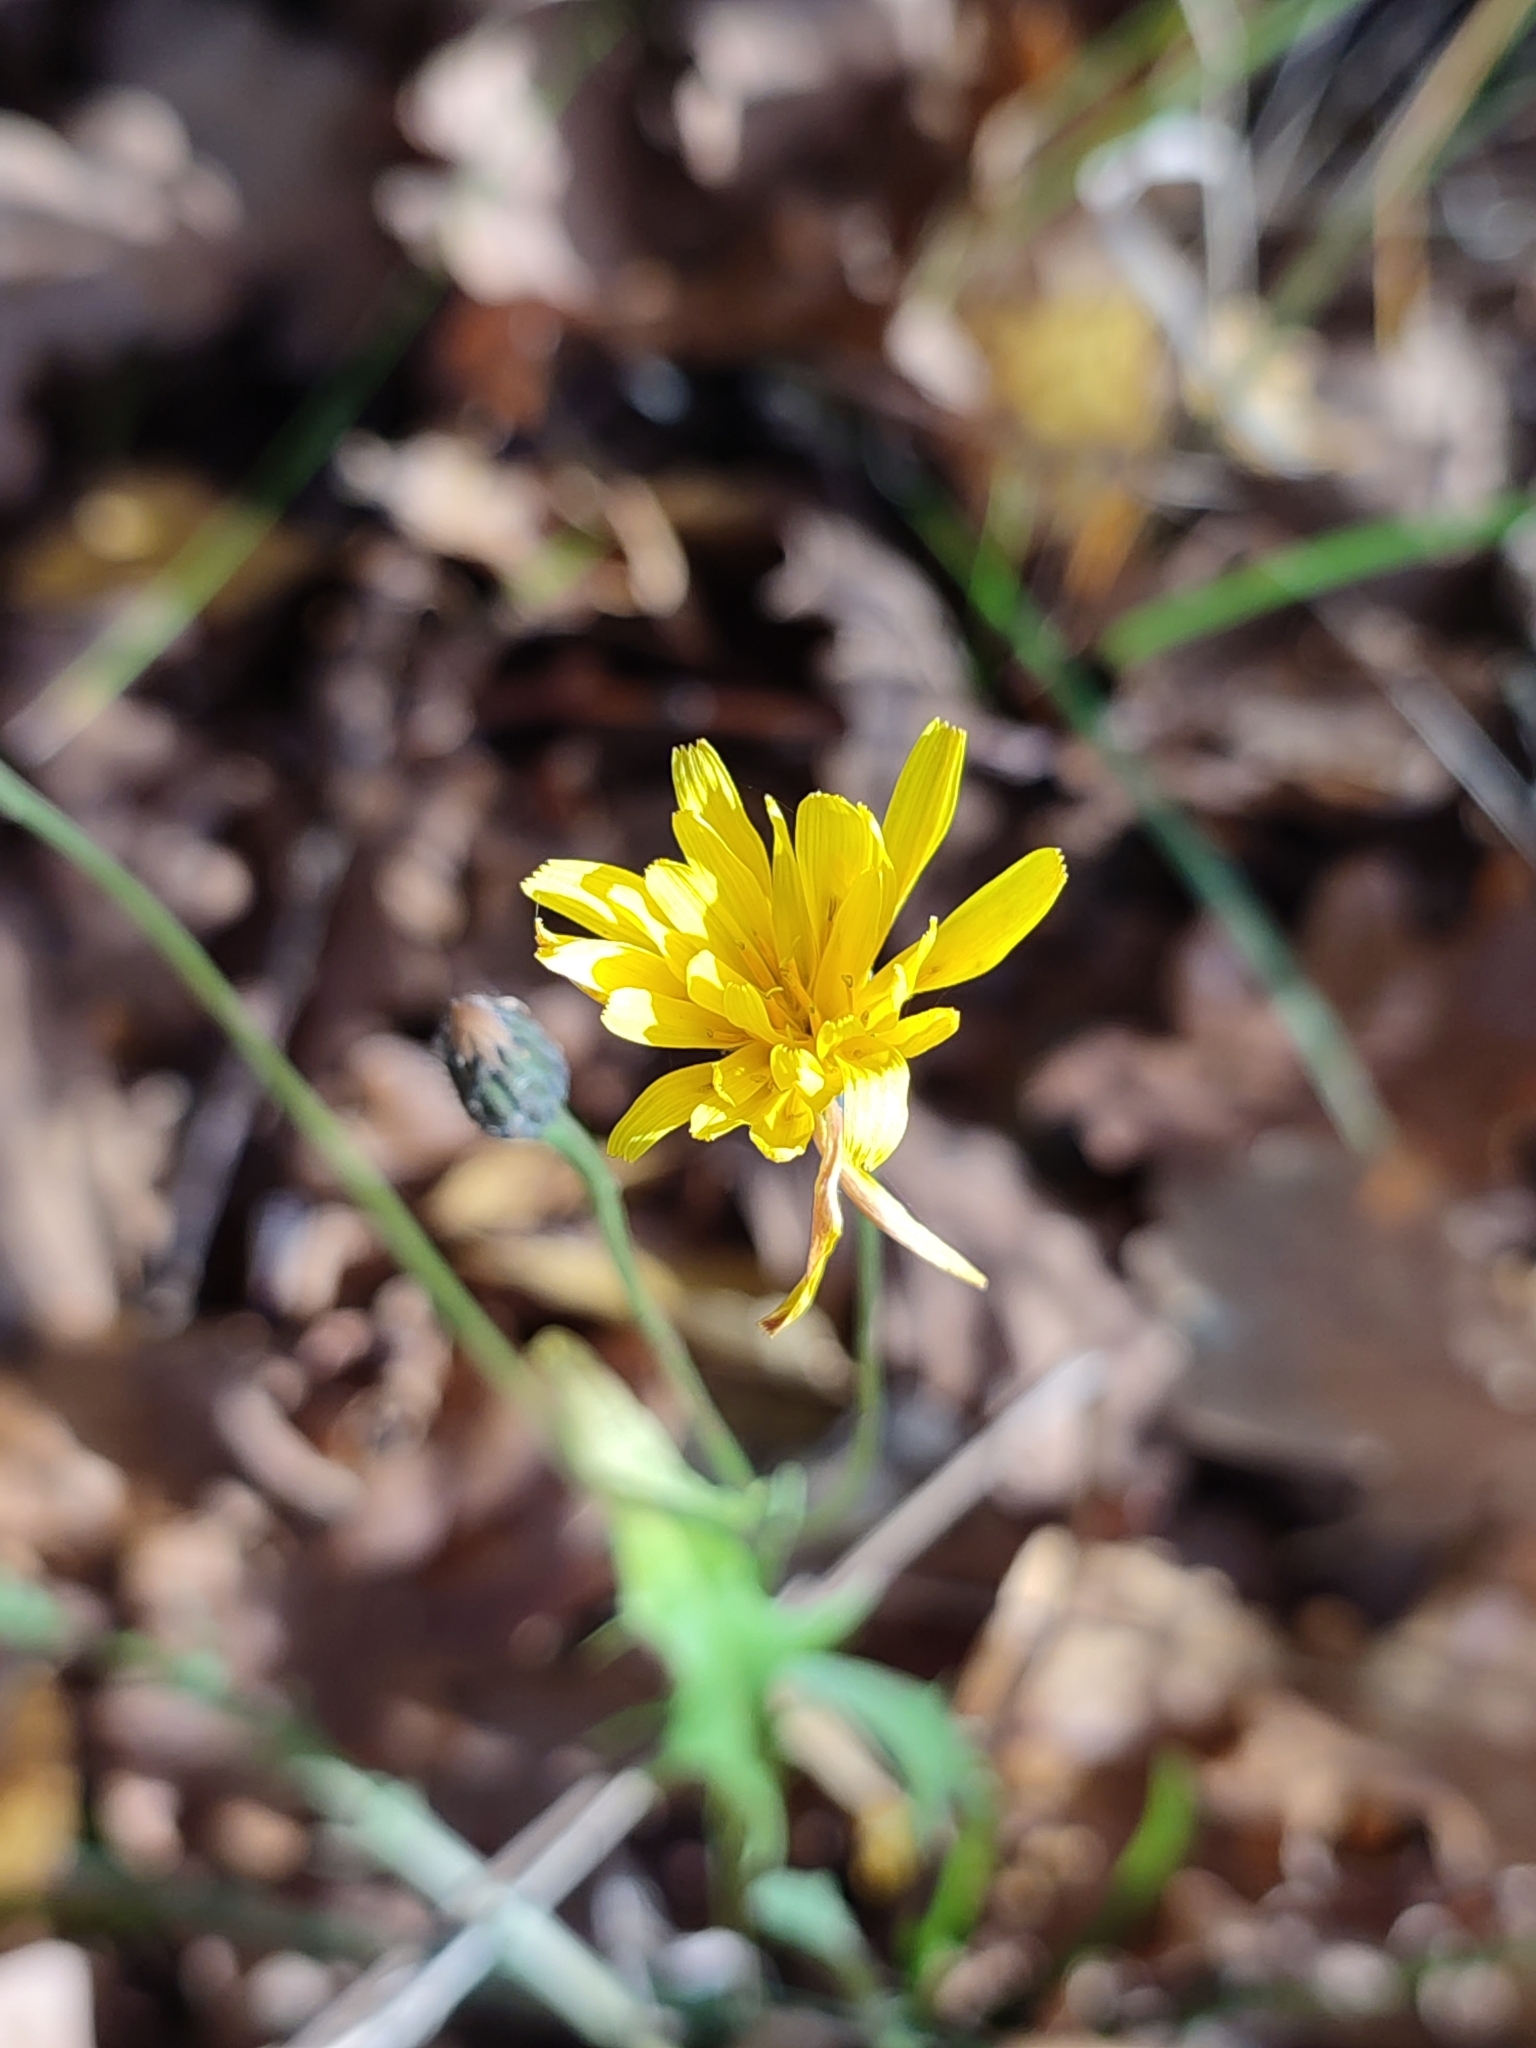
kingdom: Plantae
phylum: Tracheophyta
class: Magnoliopsida
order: Asterales
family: Asteraceae
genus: Scorzoneroides
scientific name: Scorzoneroides autumnalis
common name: Autumn hawkbit
